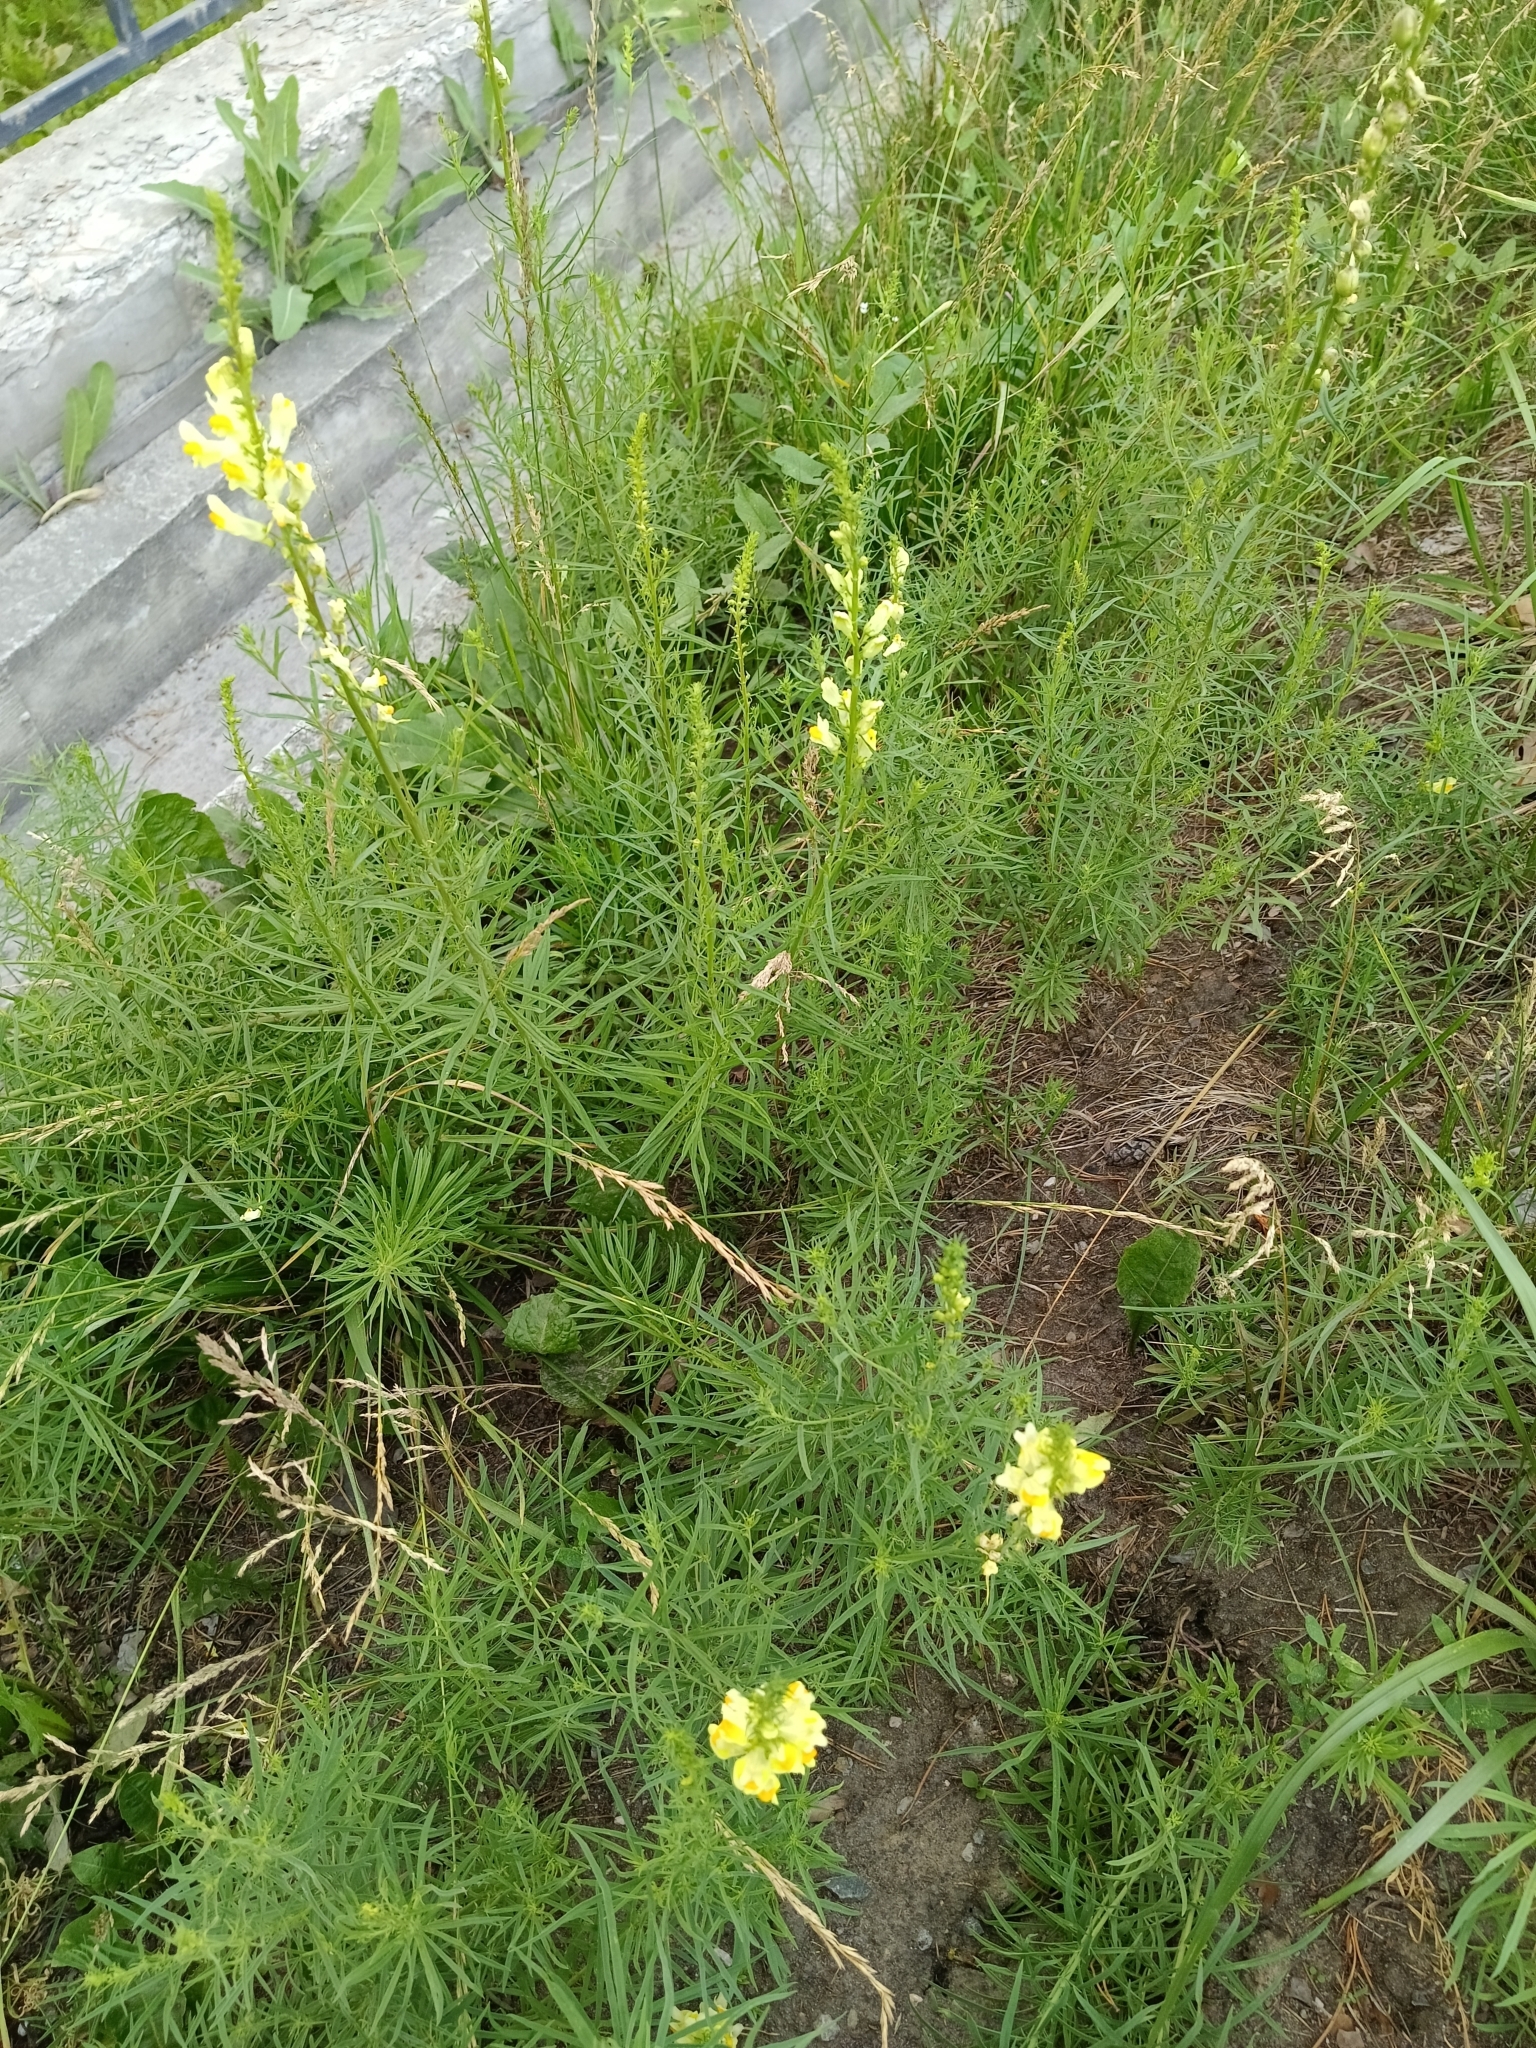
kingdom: Plantae
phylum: Tracheophyta
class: Magnoliopsida
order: Lamiales
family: Plantaginaceae
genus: Linaria
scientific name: Linaria vulgaris
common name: Butter and eggs
